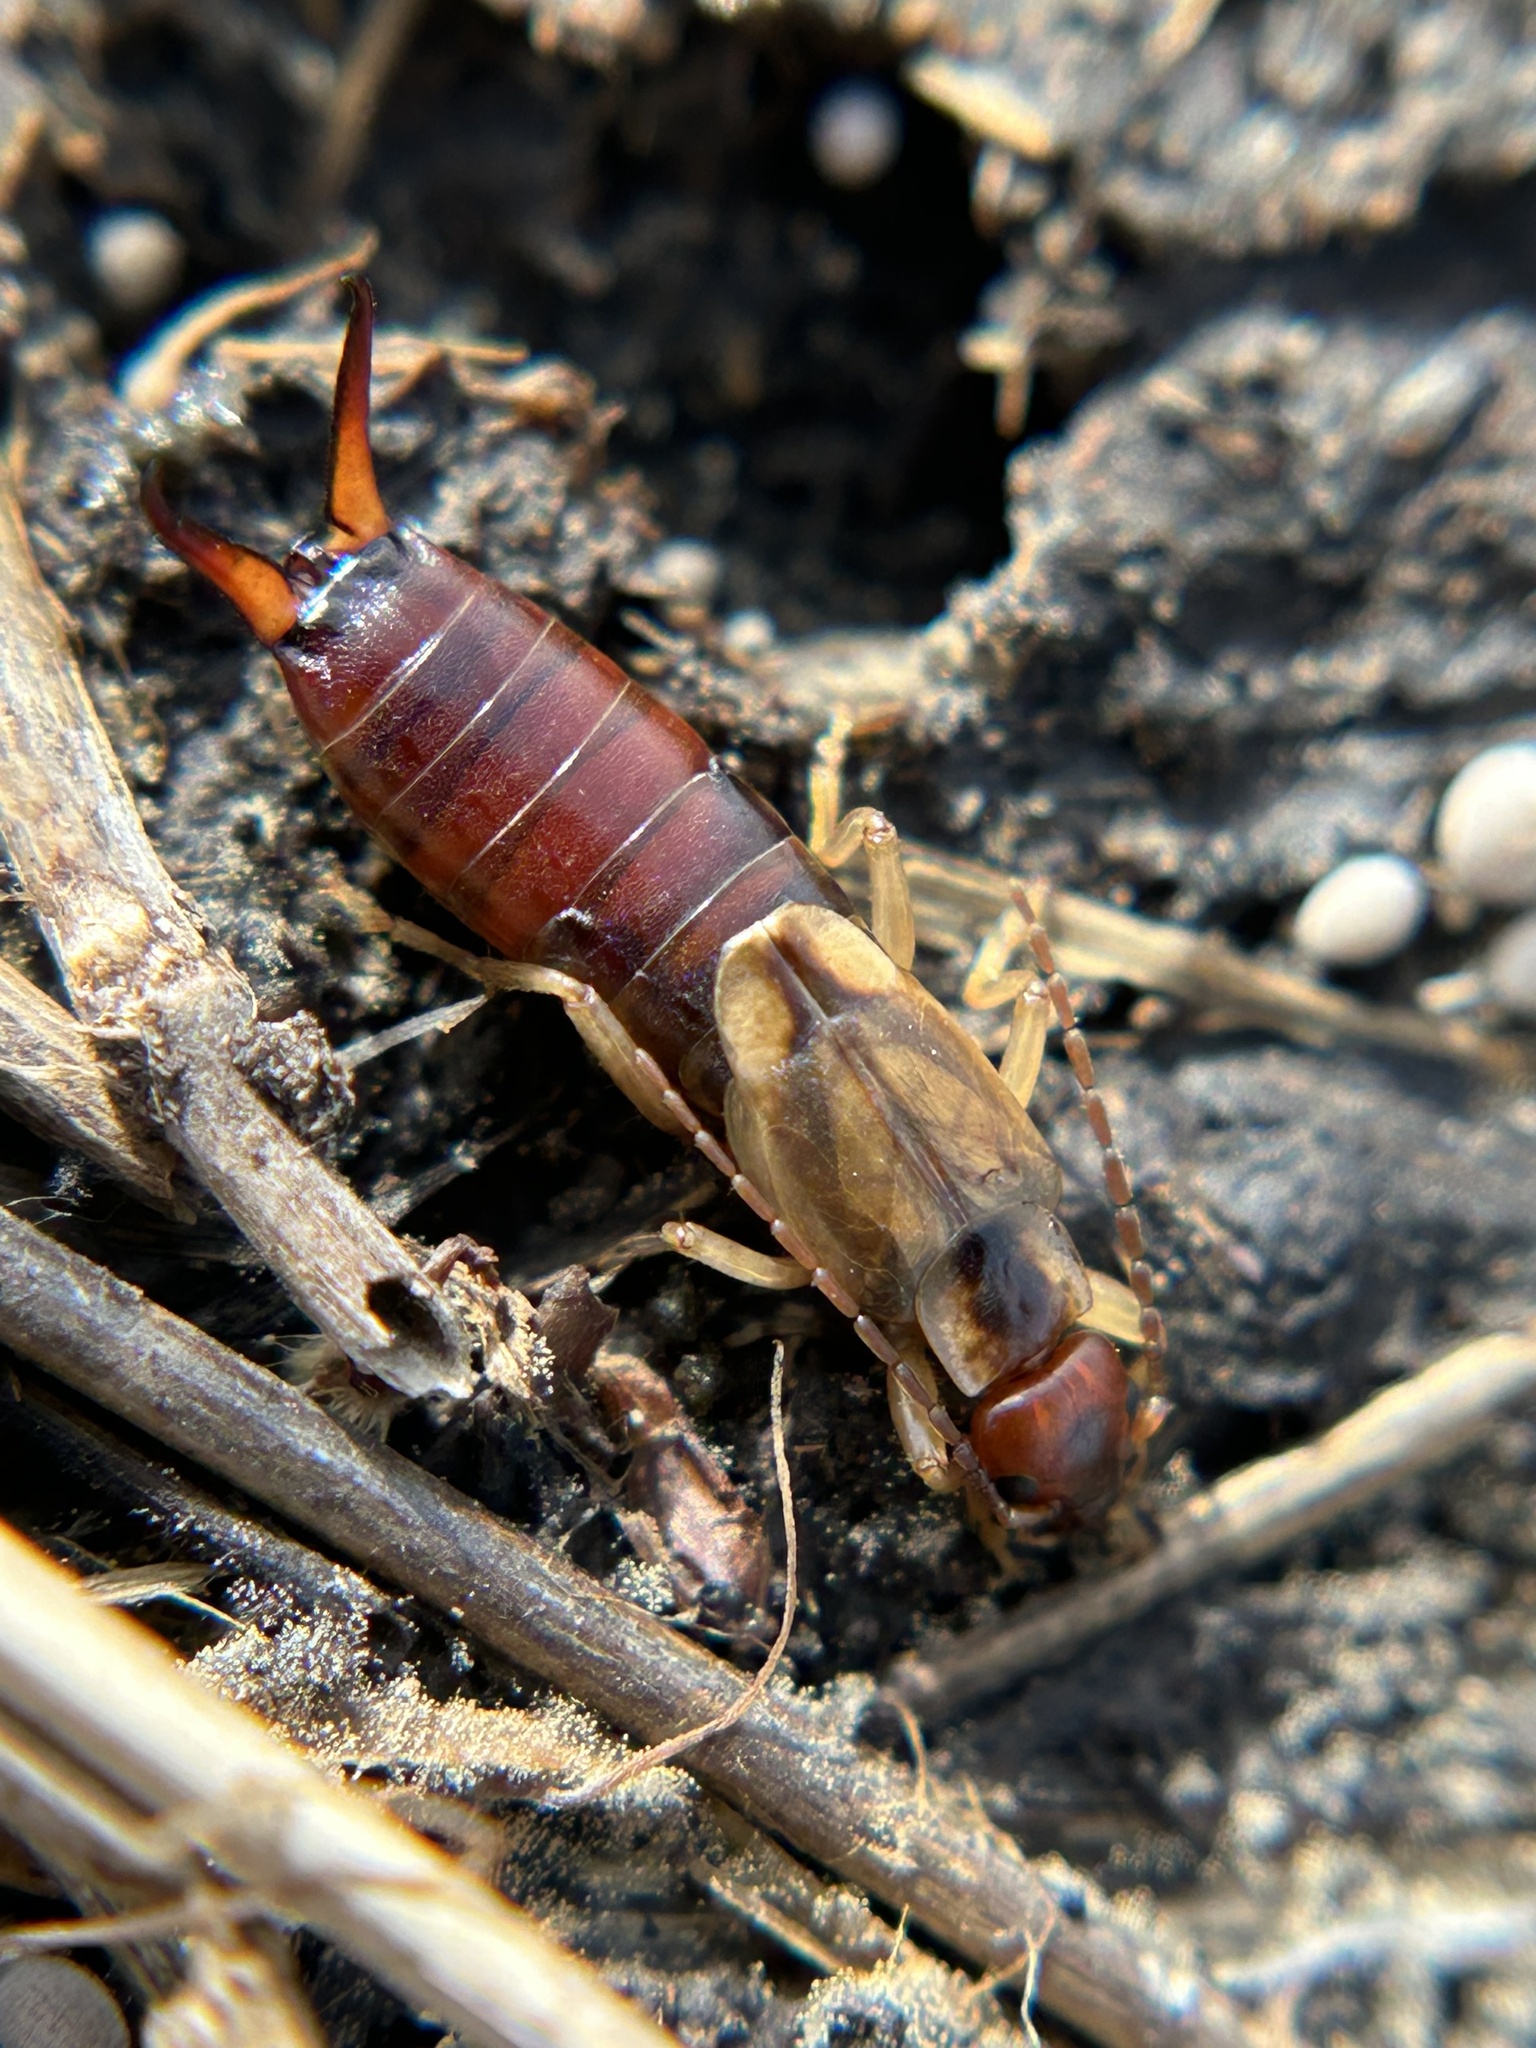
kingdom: Animalia
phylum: Arthropoda
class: Insecta
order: Dermaptera
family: Forficulidae
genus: Forficula
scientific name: Forficula
